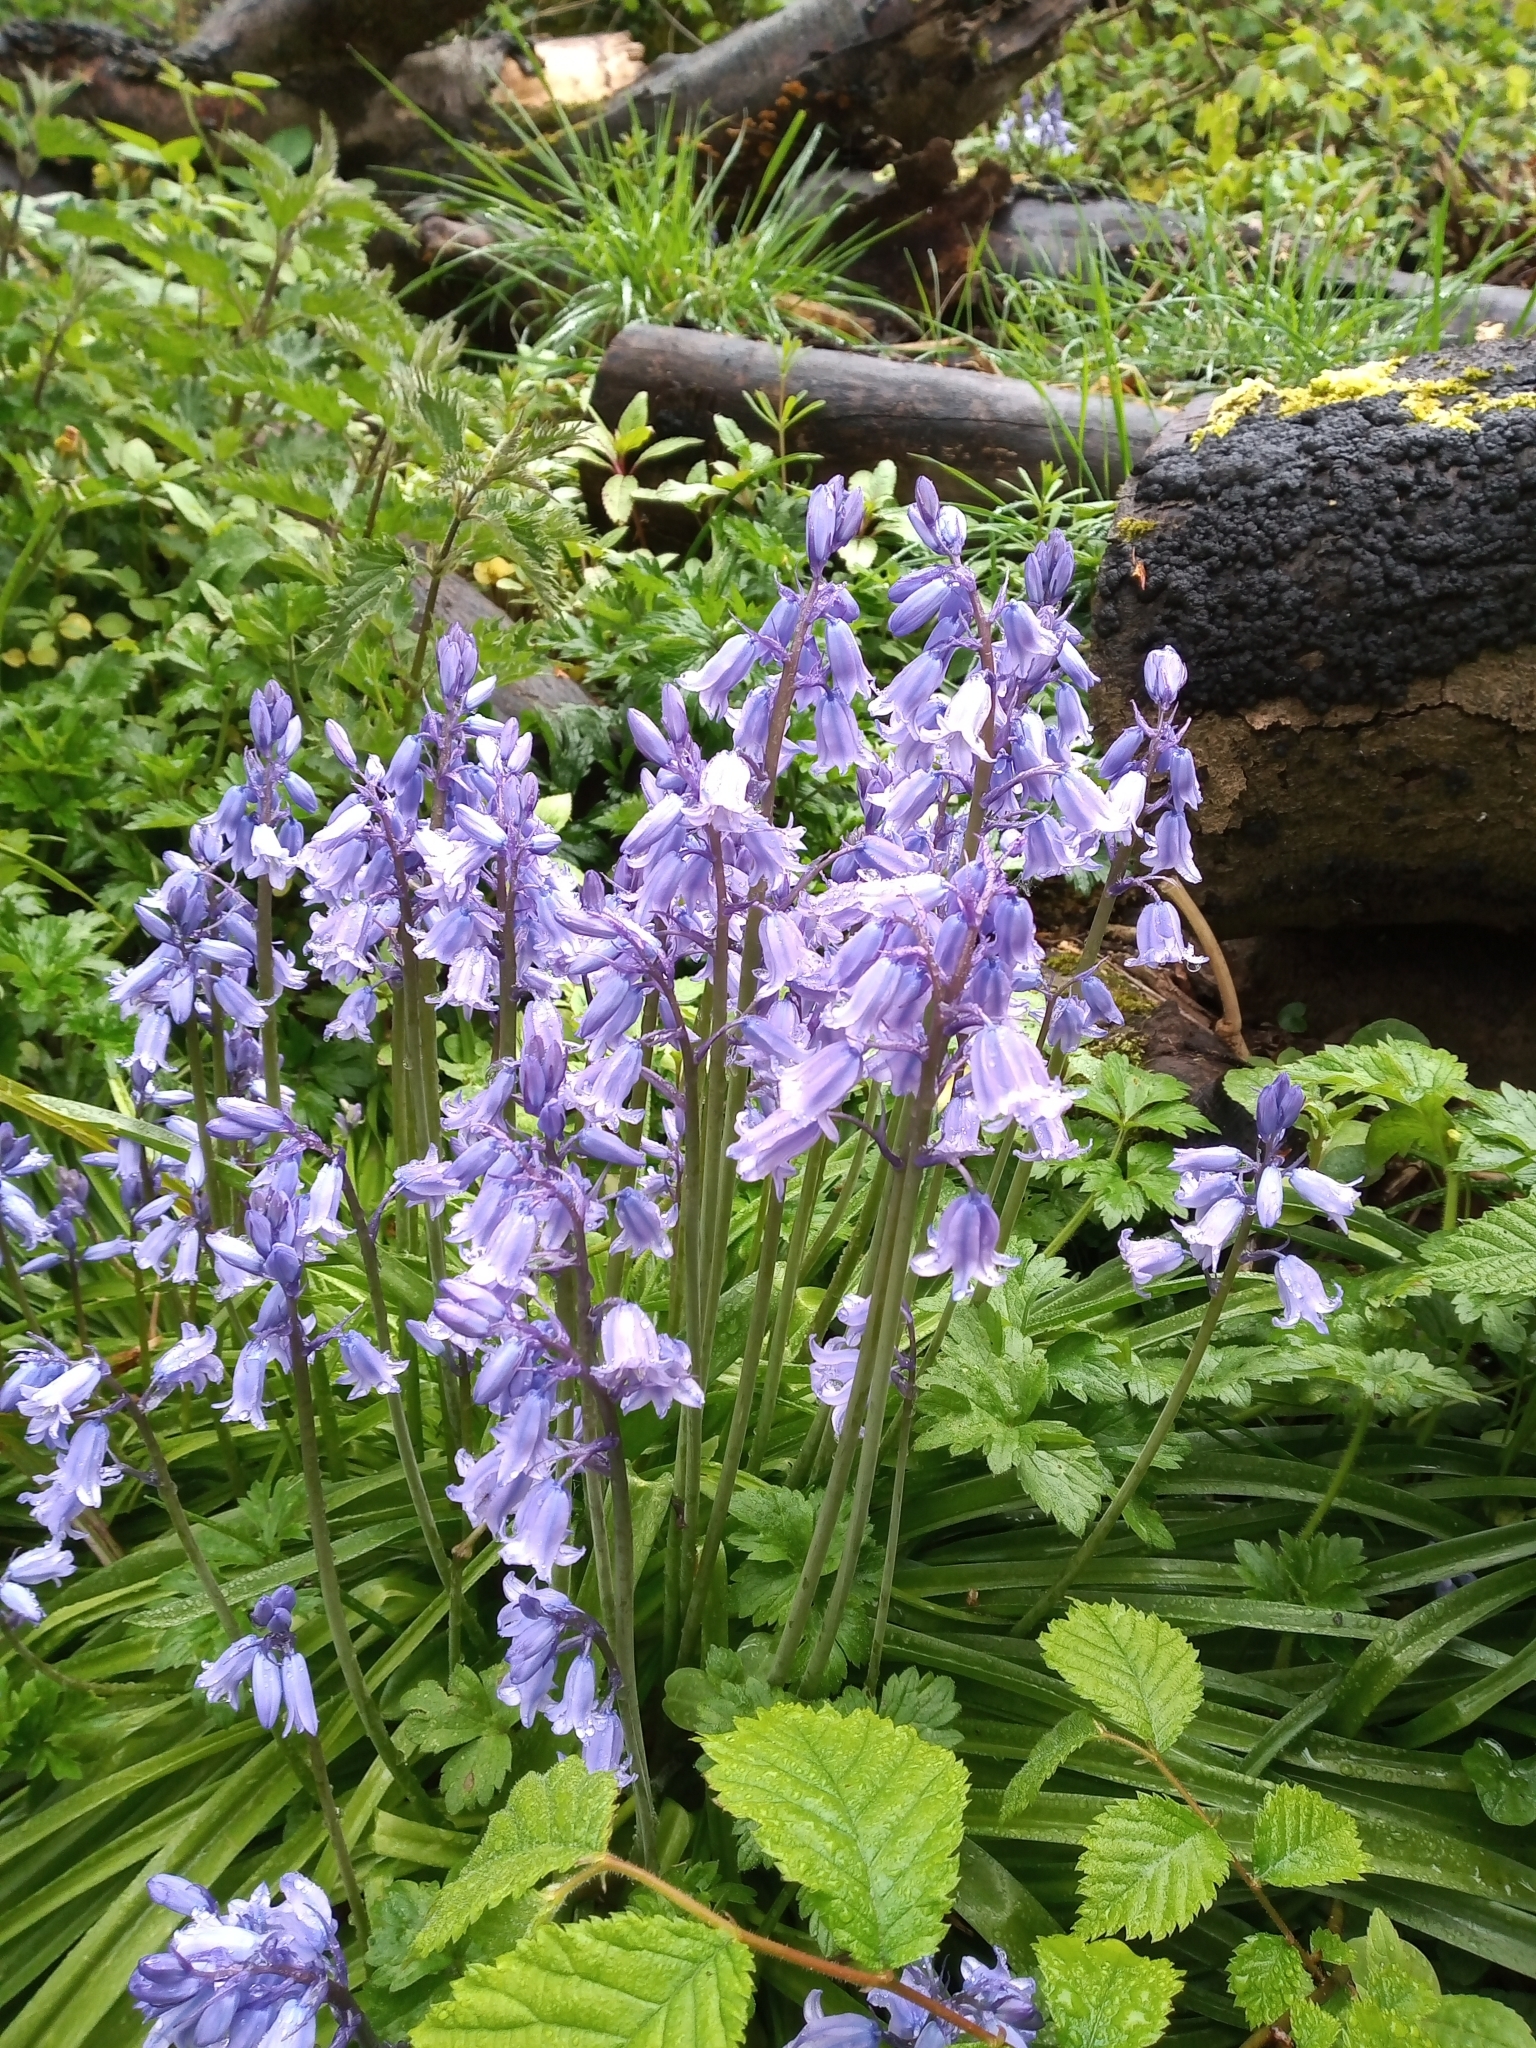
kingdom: Plantae
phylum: Tracheophyta
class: Liliopsida
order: Asparagales
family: Asparagaceae
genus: Hyacinthoides
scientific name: Hyacinthoides massartiana
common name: Hyacinthoides
